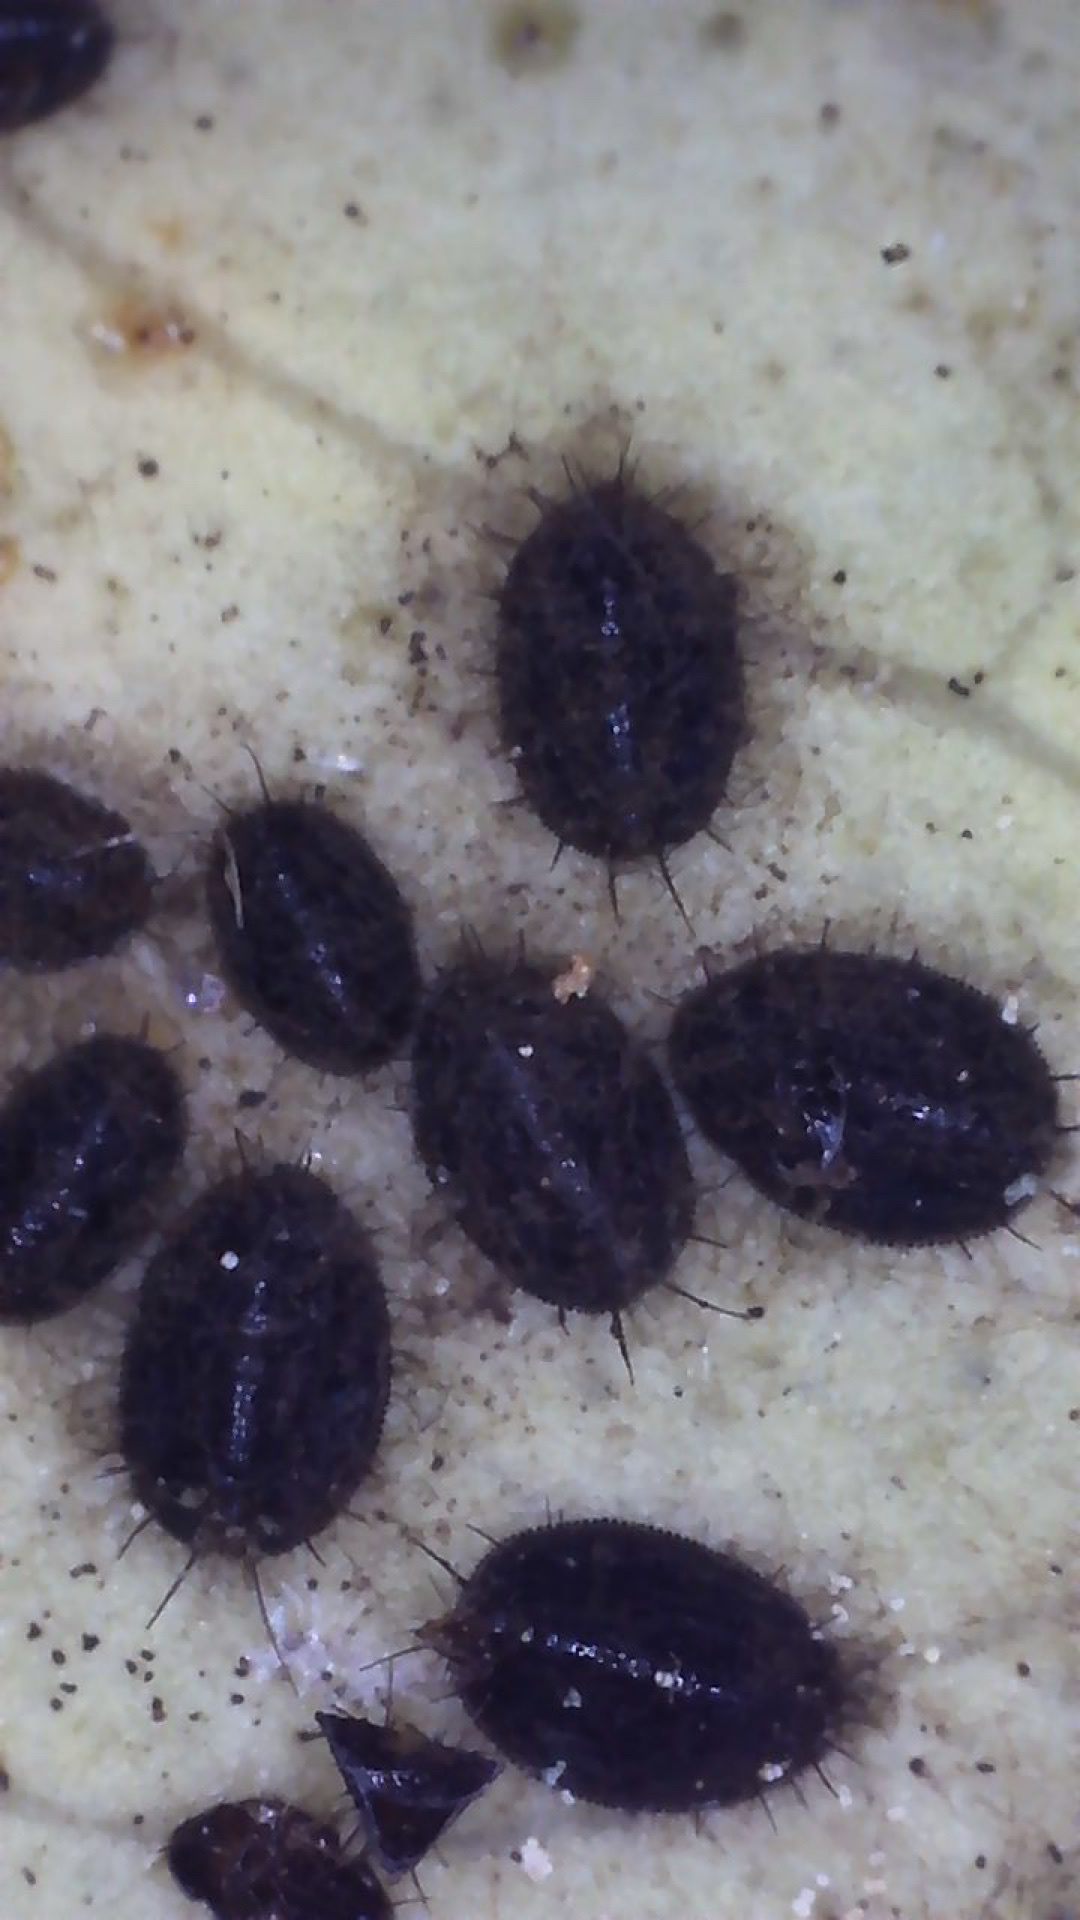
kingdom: Animalia
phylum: Arthropoda
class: Insecta
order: Hemiptera
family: Aleyrodidae
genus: Aleurocanthus
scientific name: Aleurocanthus woglumi
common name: Citrus blackfly
